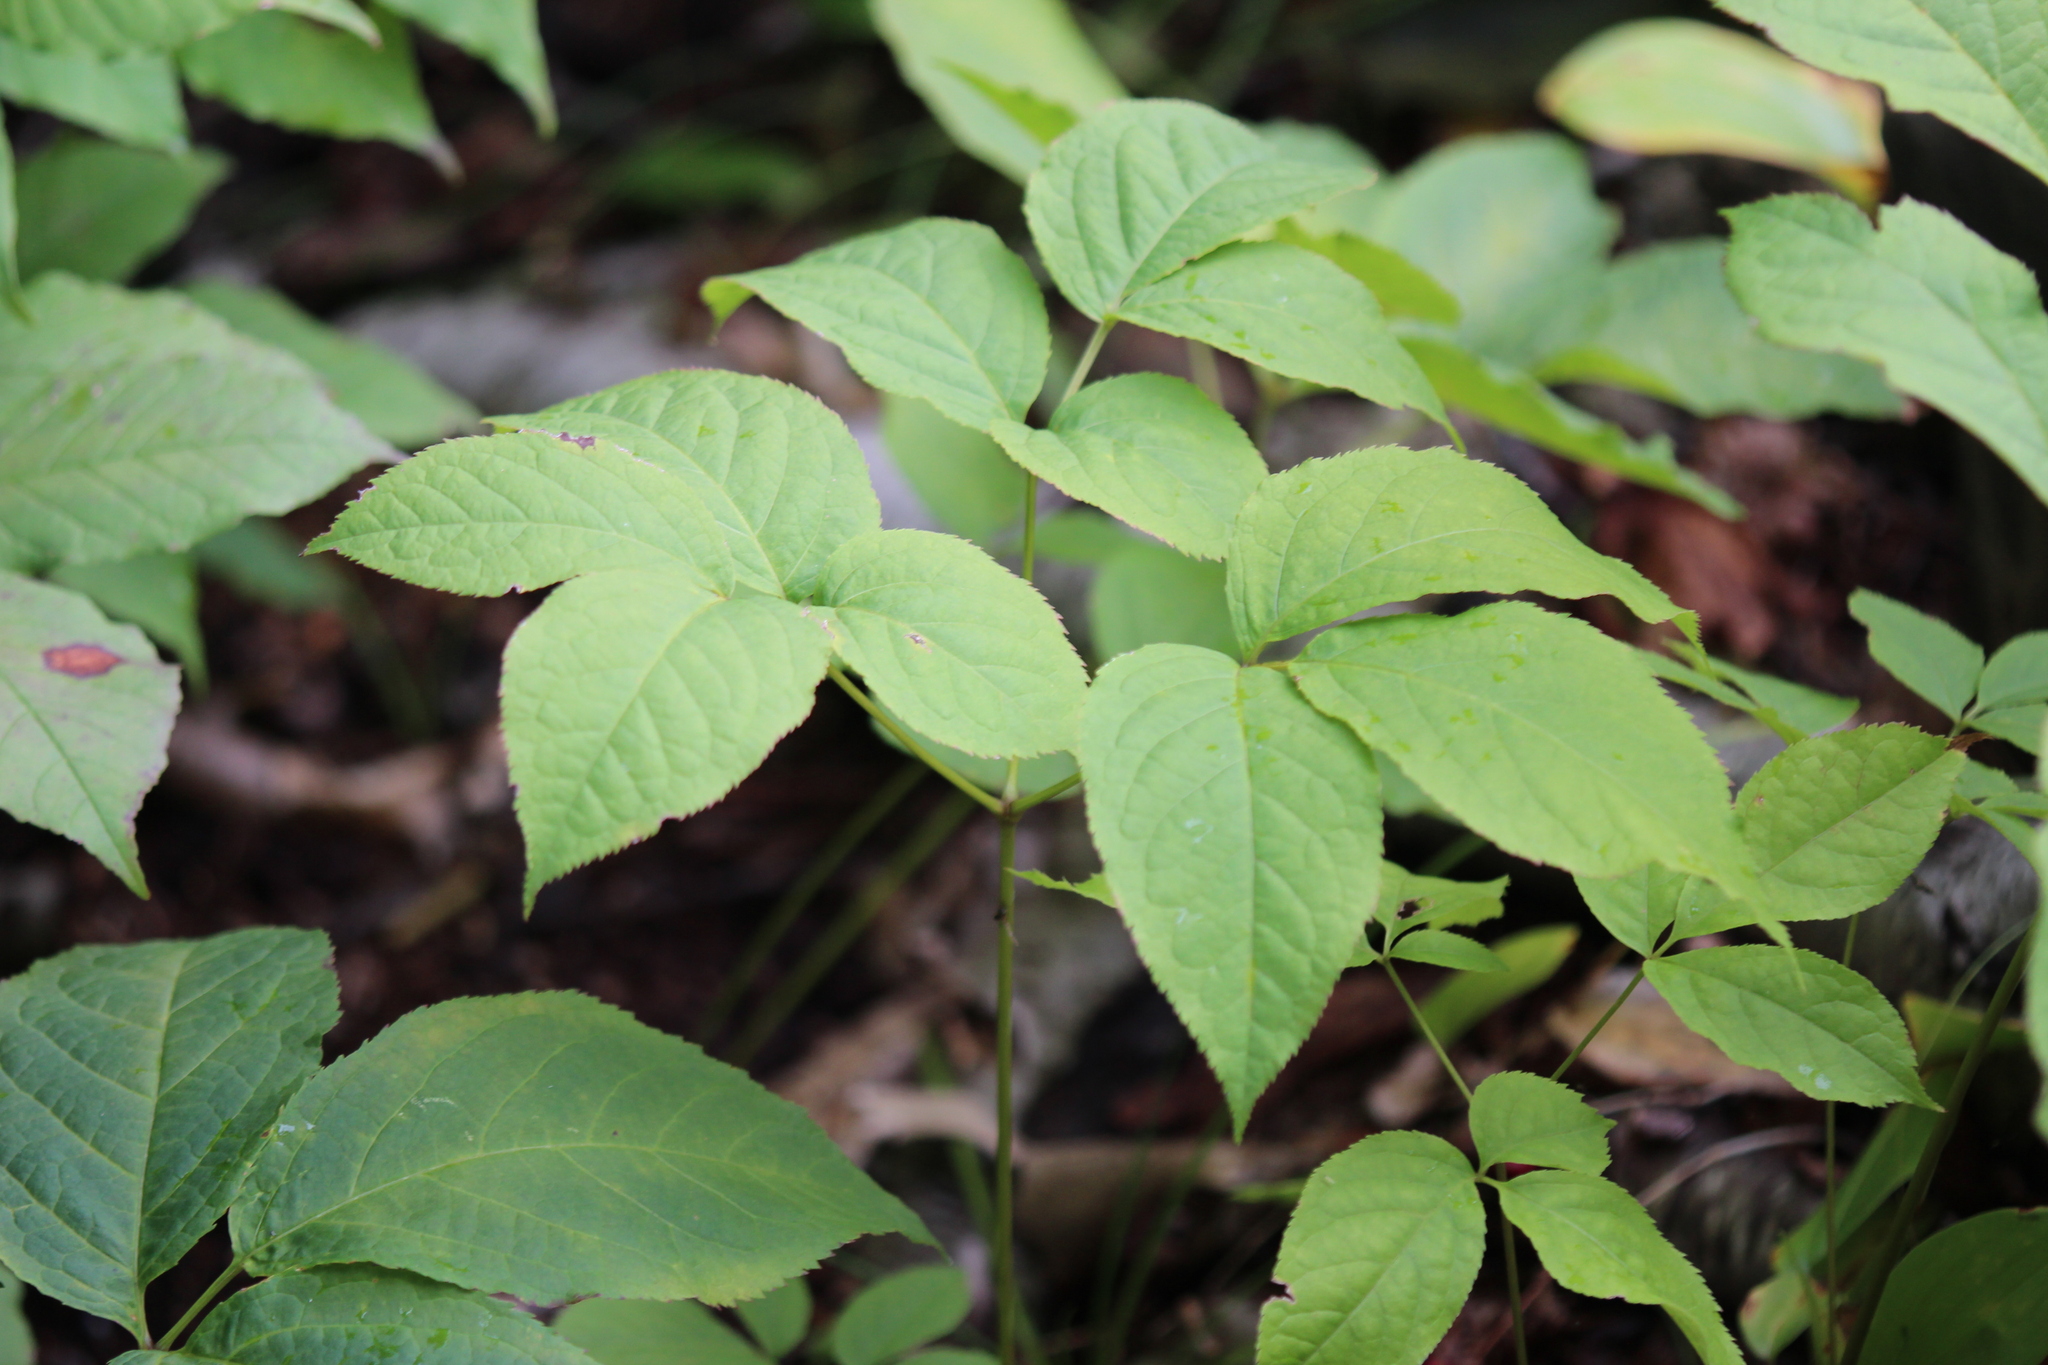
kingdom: Plantae
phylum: Tracheophyta
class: Magnoliopsida
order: Apiales
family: Araliaceae
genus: Aralia
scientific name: Aralia nudicaulis
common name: Wild sarsaparilla
